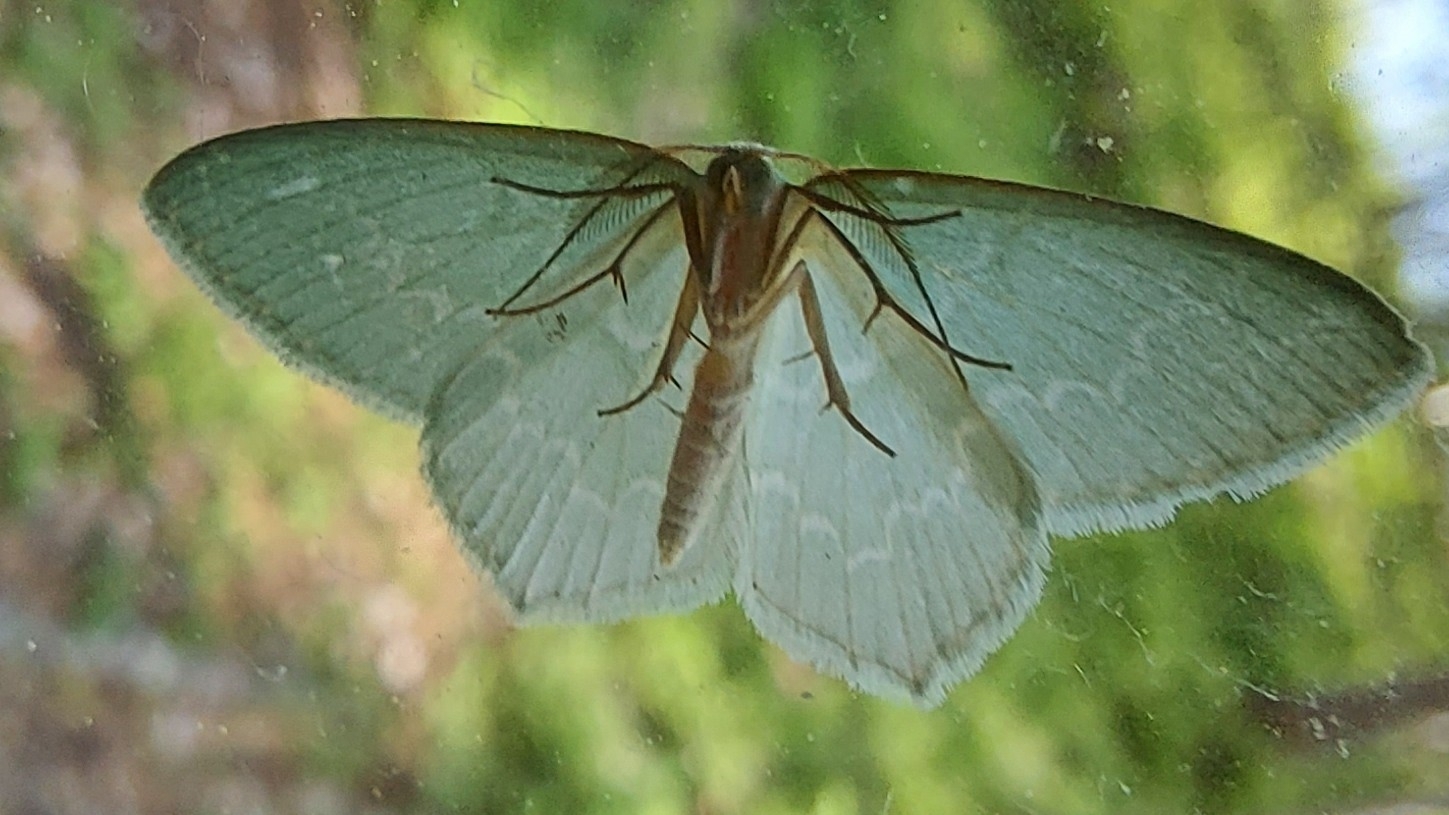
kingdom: Animalia
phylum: Arthropoda
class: Insecta
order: Lepidoptera
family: Geometridae
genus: Jodis
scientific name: Jodis putata
